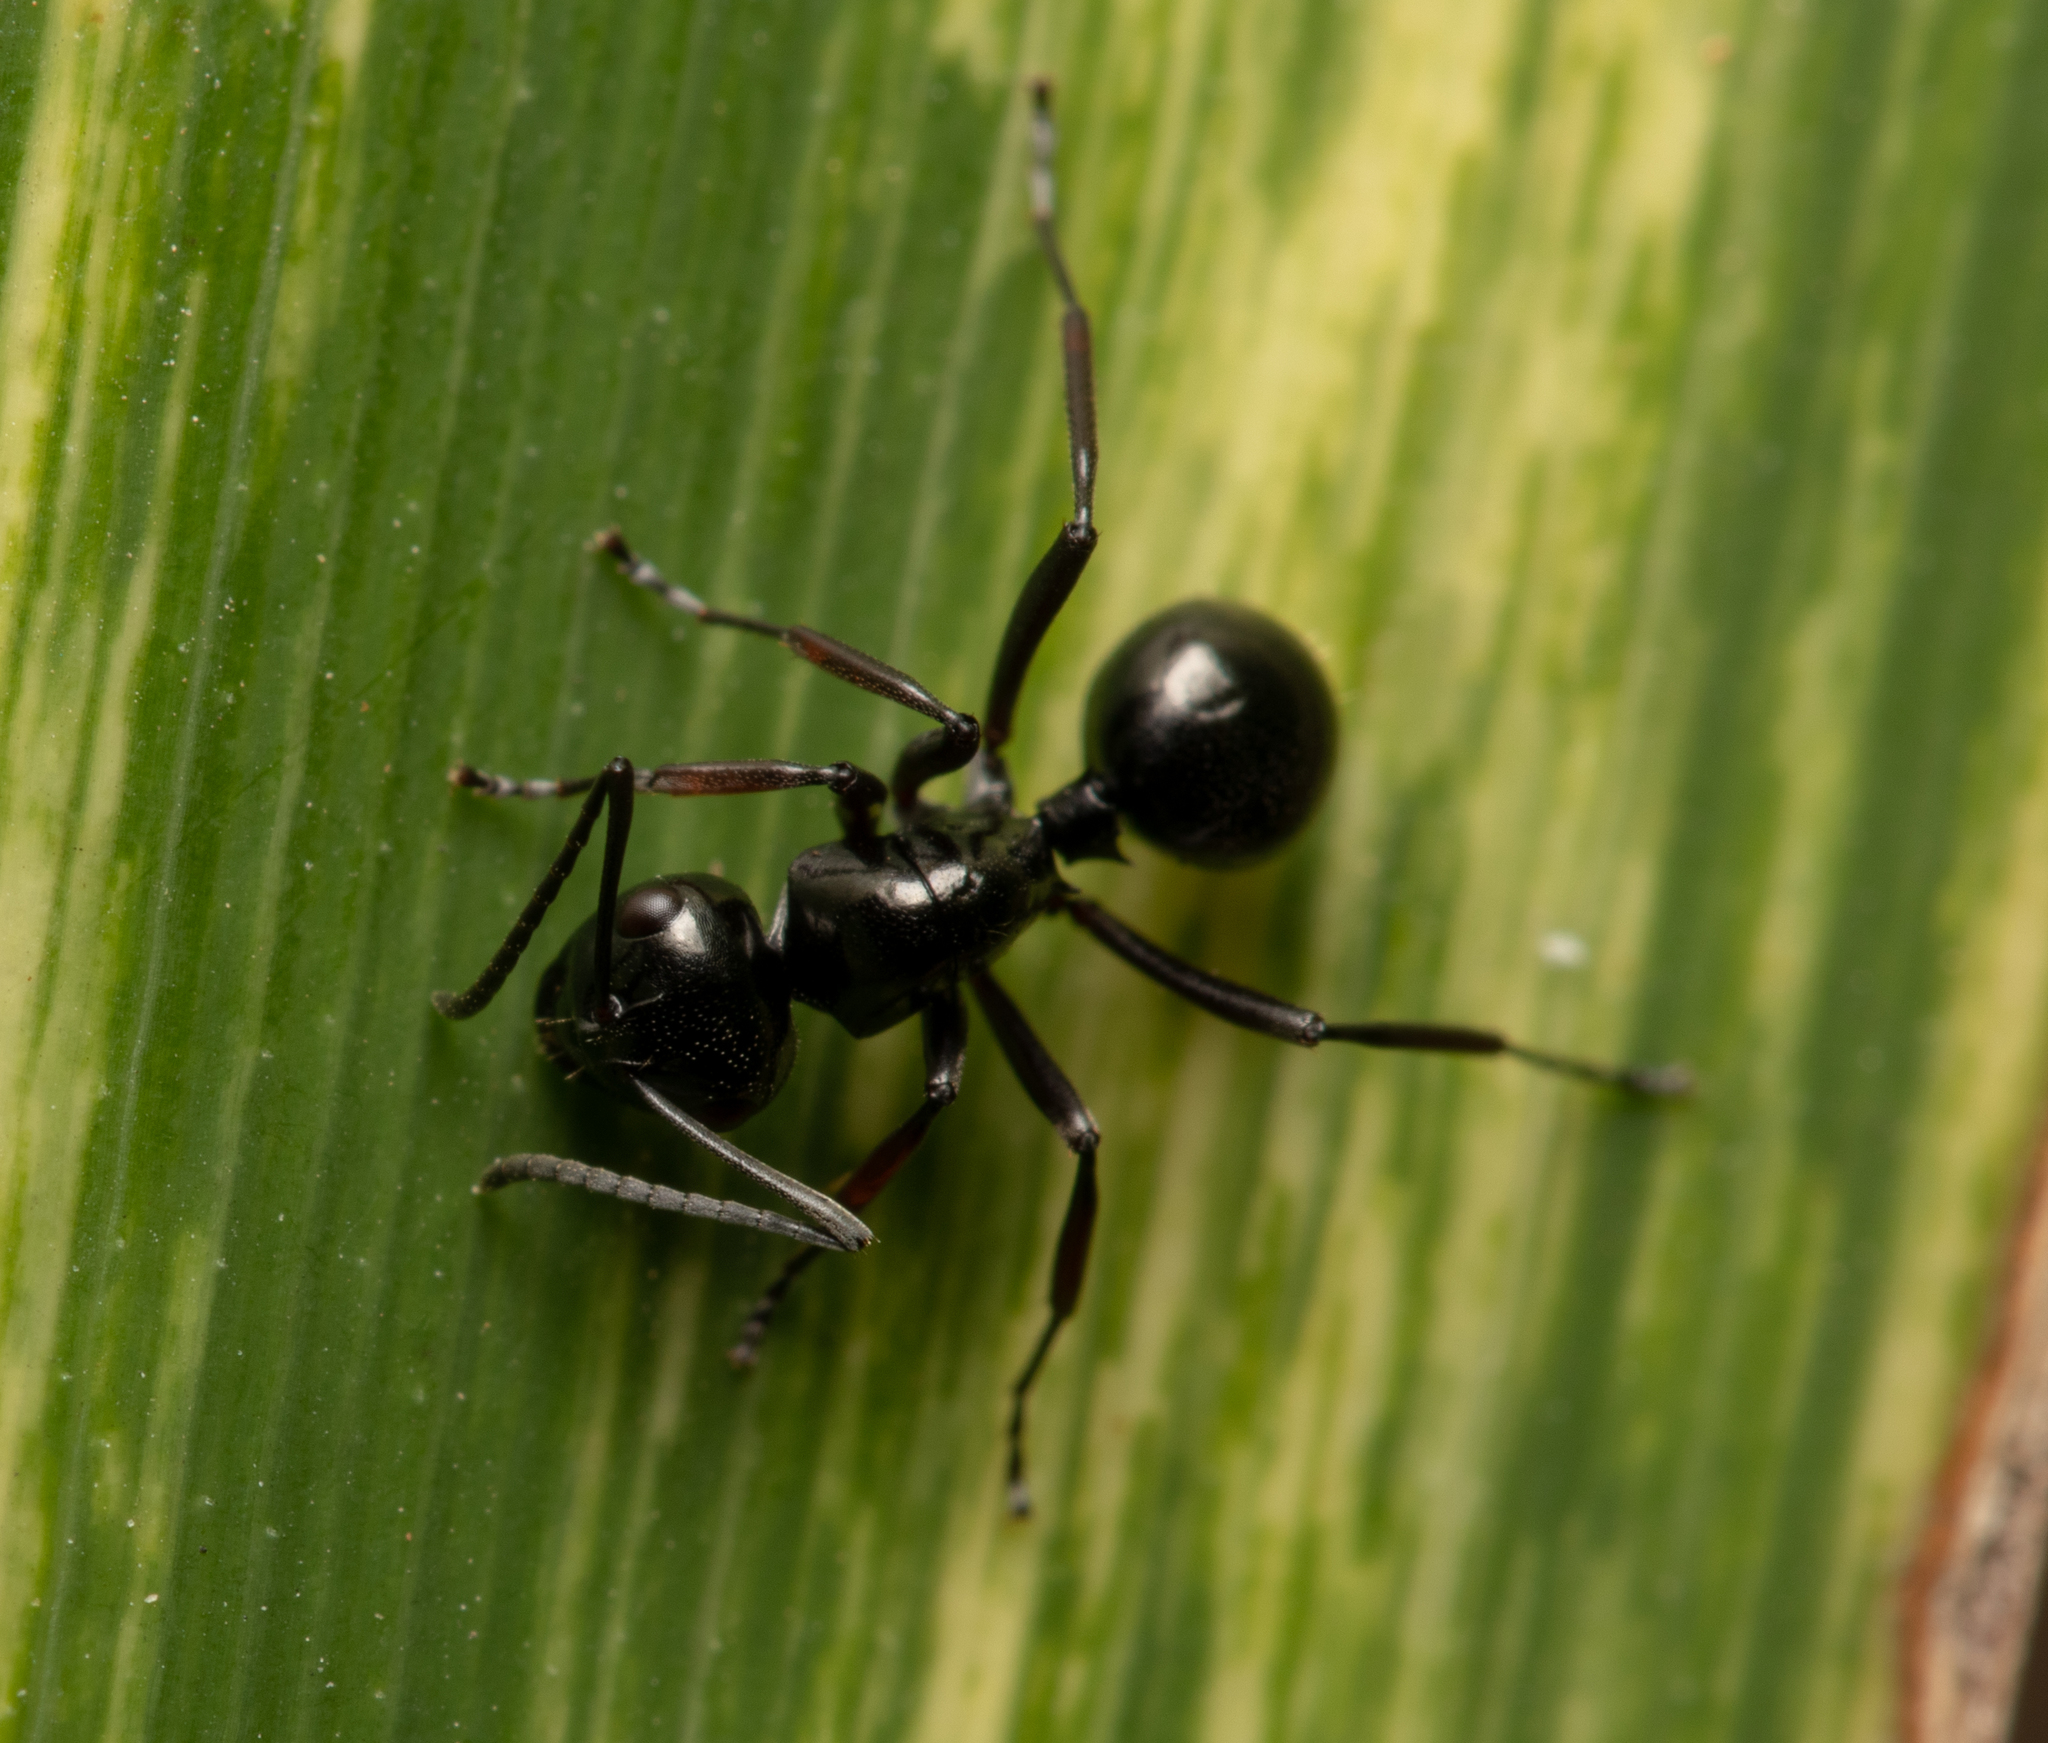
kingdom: Animalia
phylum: Arthropoda
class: Insecta
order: Hymenoptera
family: Formicidae
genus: Polyrhachis
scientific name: Polyrhachis australis
